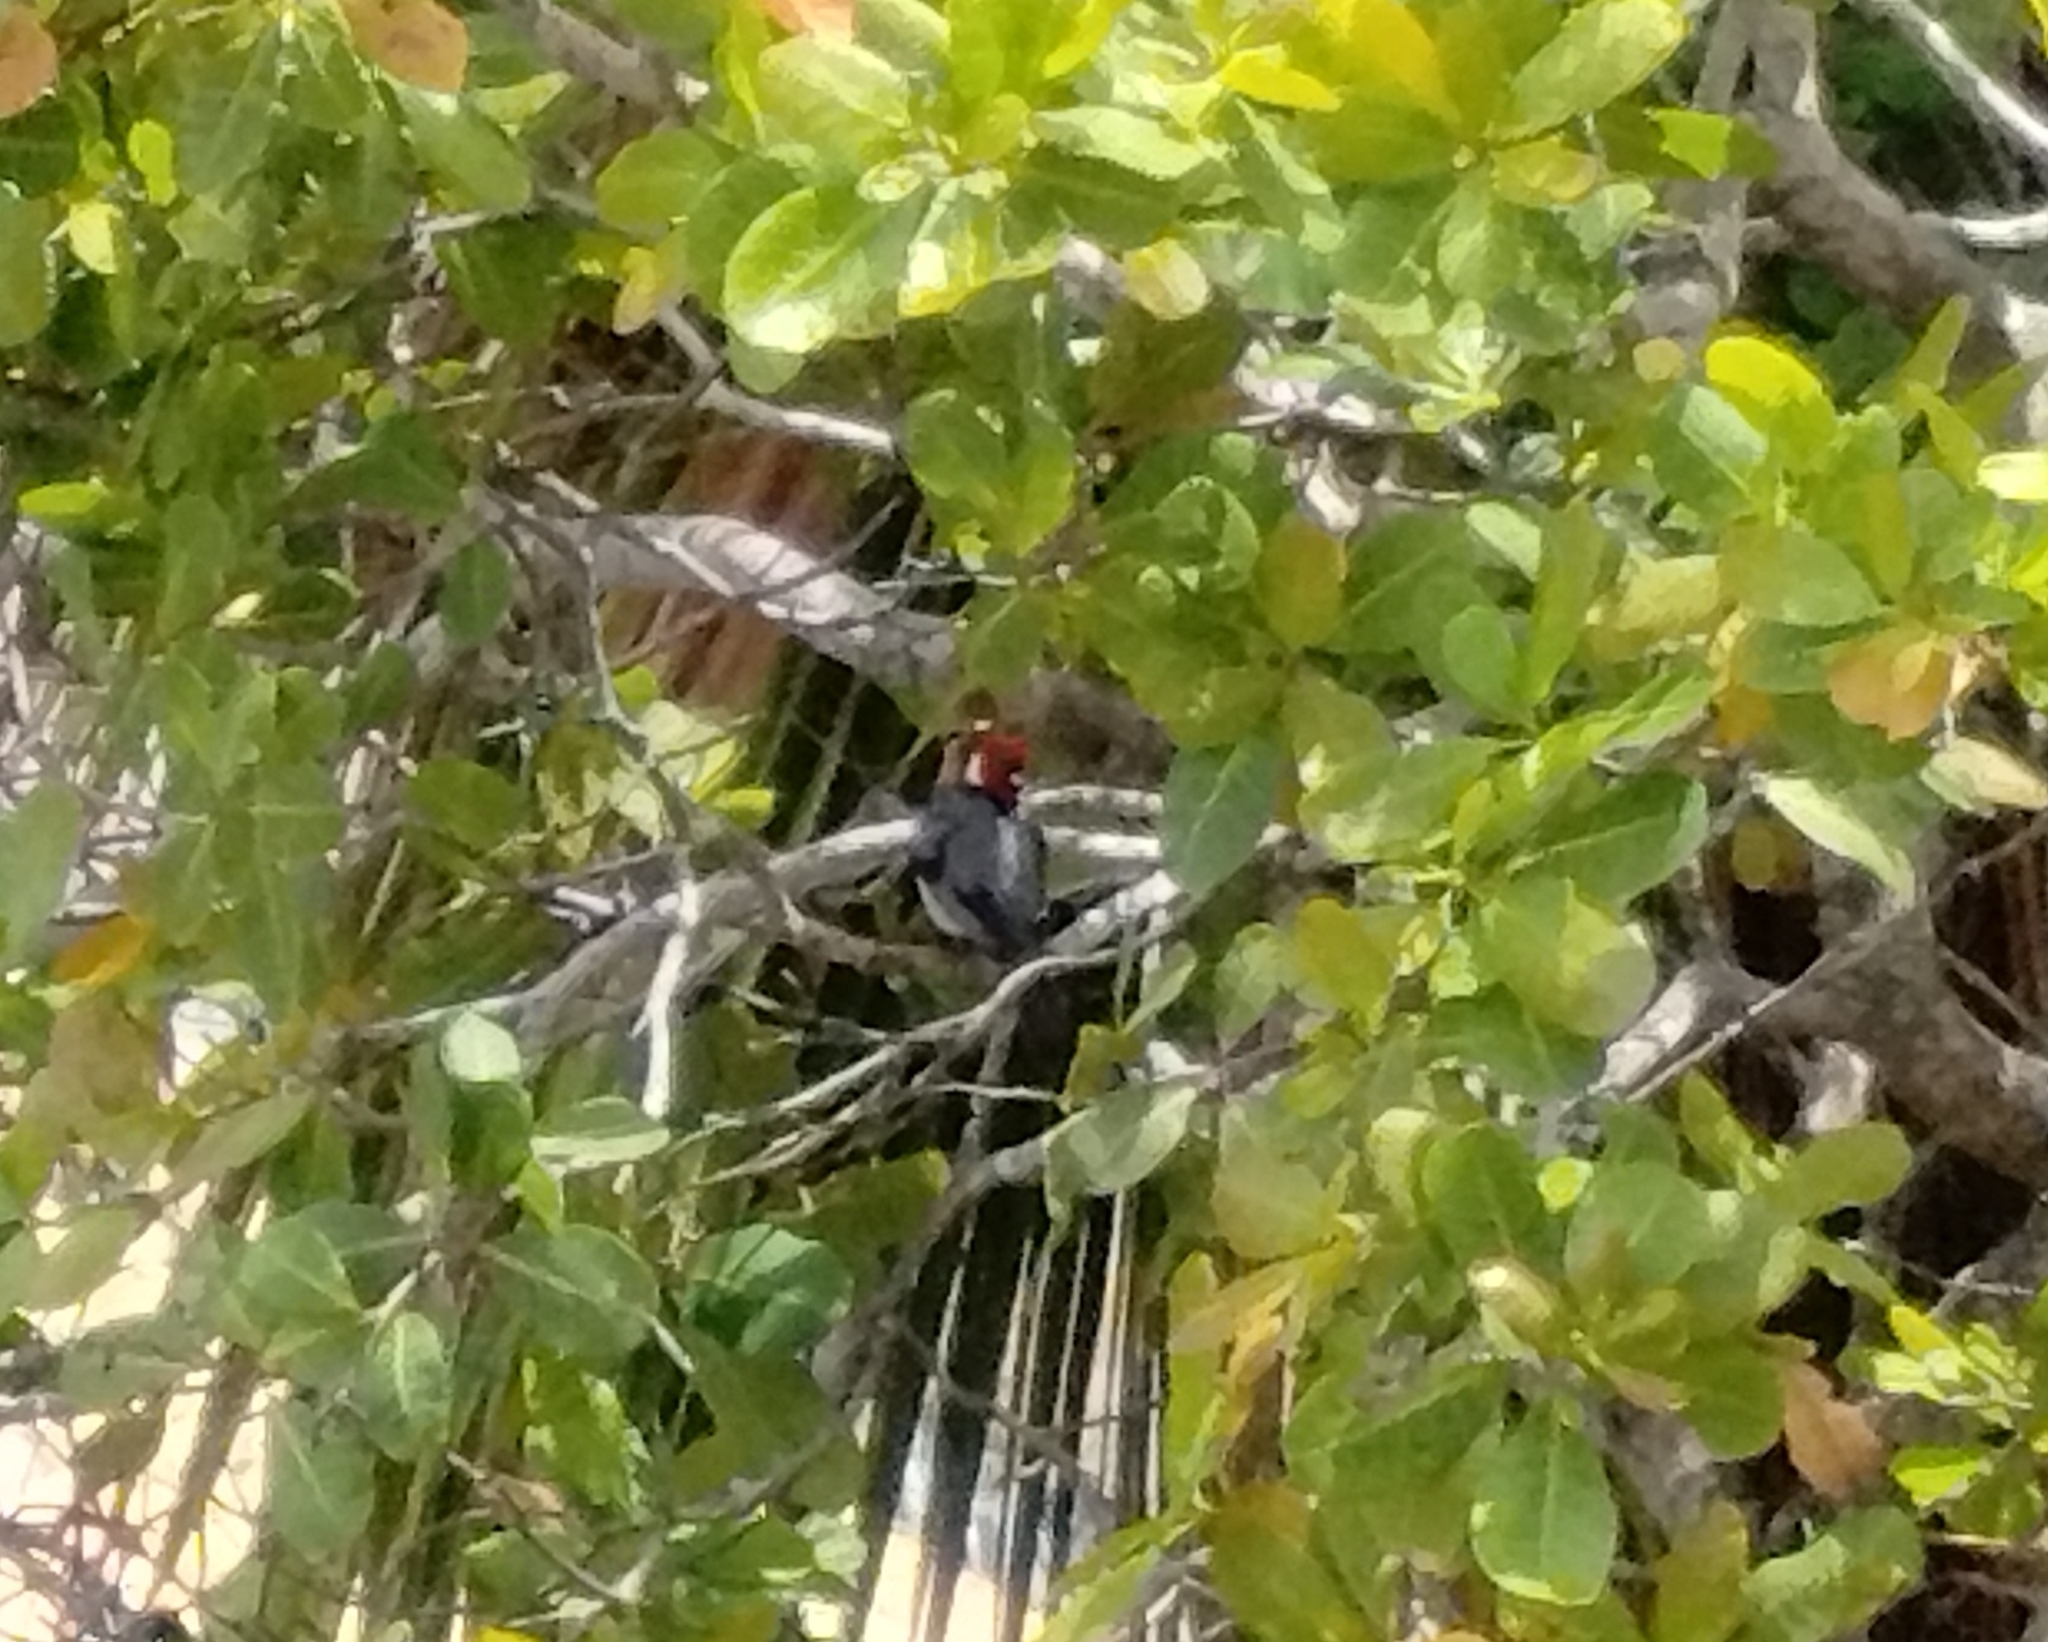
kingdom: Animalia
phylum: Chordata
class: Aves
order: Passeriformes
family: Thraupidae
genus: Paroaria
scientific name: Paroaria dominicana
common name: Red-cowled cardinal
